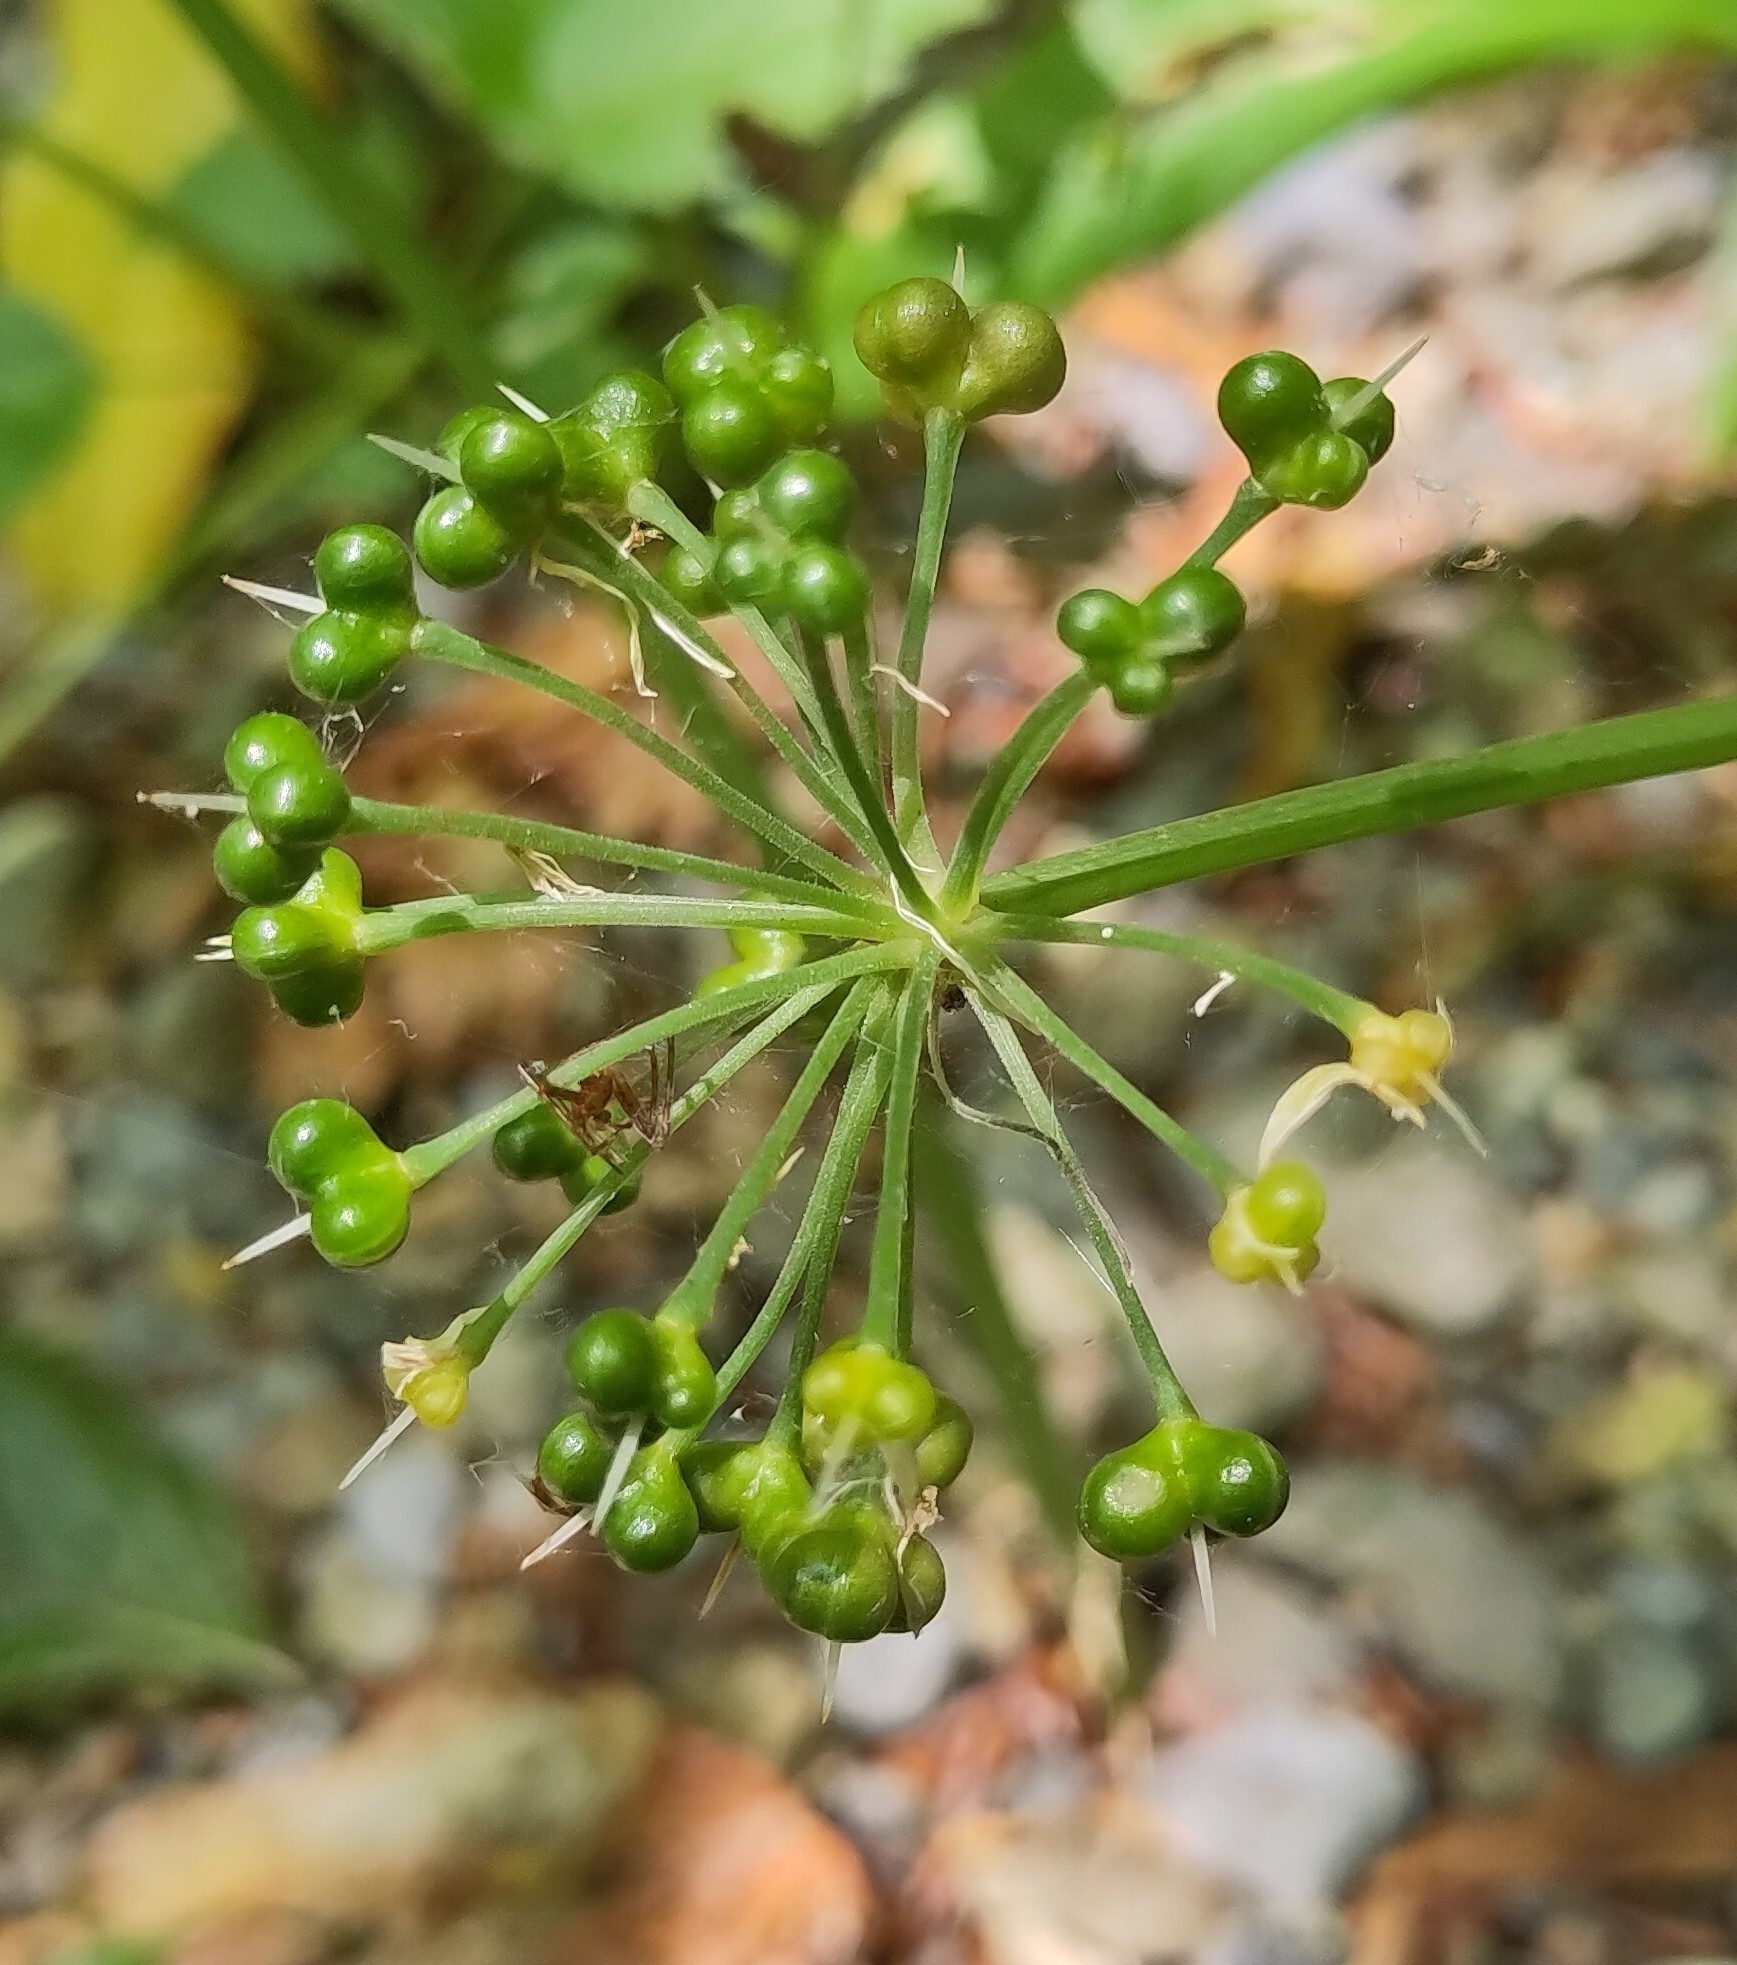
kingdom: Plantae
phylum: Tracheophyta
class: Liliopsida
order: Asparagales
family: Amaryllidaceae
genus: Allium
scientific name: Allium ursinum
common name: Ramsons
